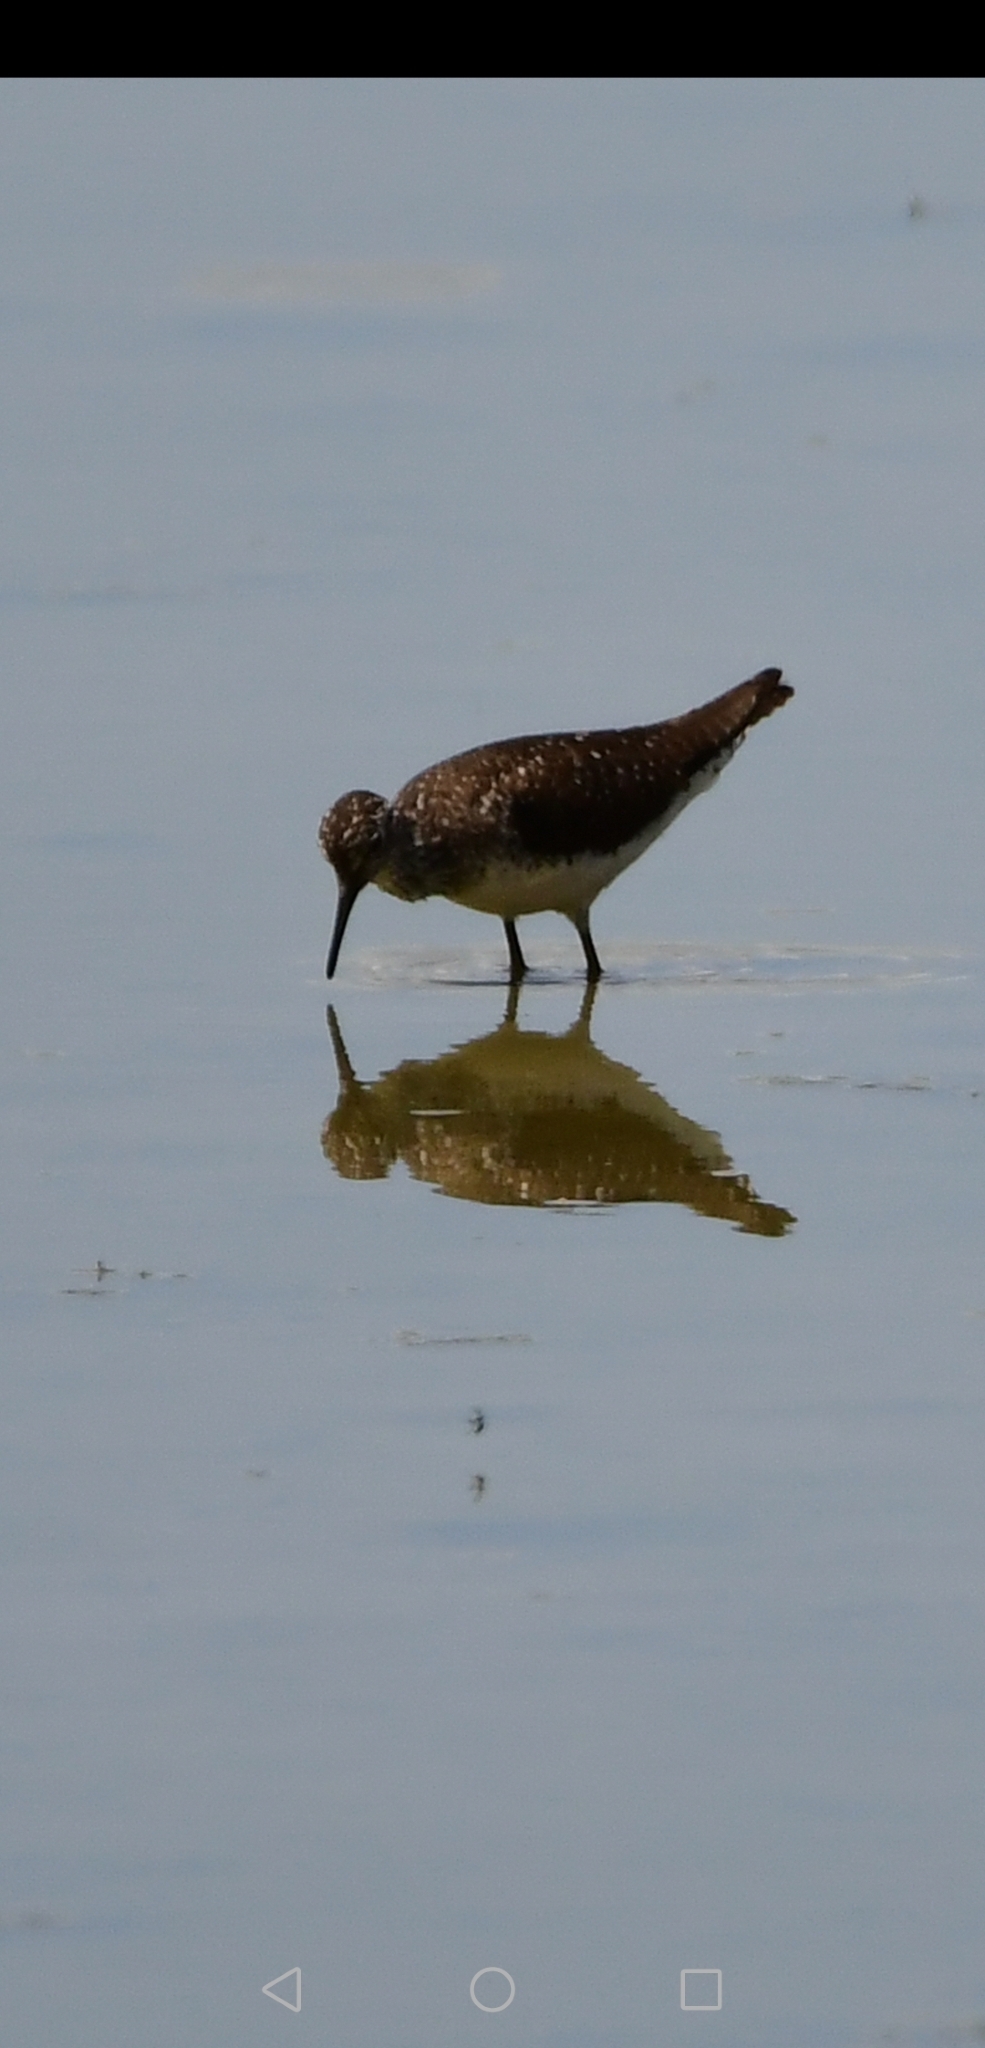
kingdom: Animalia
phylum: Chordata
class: Aves
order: Charadriiformes
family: Scolopacidae
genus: Tringa
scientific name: Tringa solitaria
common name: Solitary sandpiper
